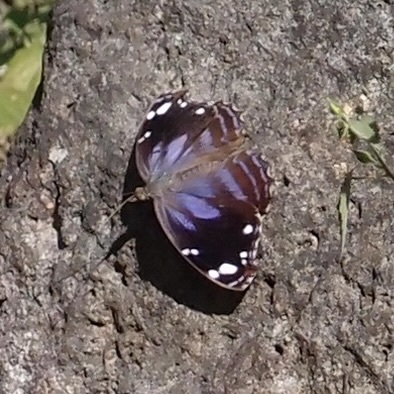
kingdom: Animalia
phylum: Arthropoda
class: Insecta
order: Lepidoptera
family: Nymphalidae
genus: Myscelia
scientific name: Myscelia cyananthe
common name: Blackened bluewing
